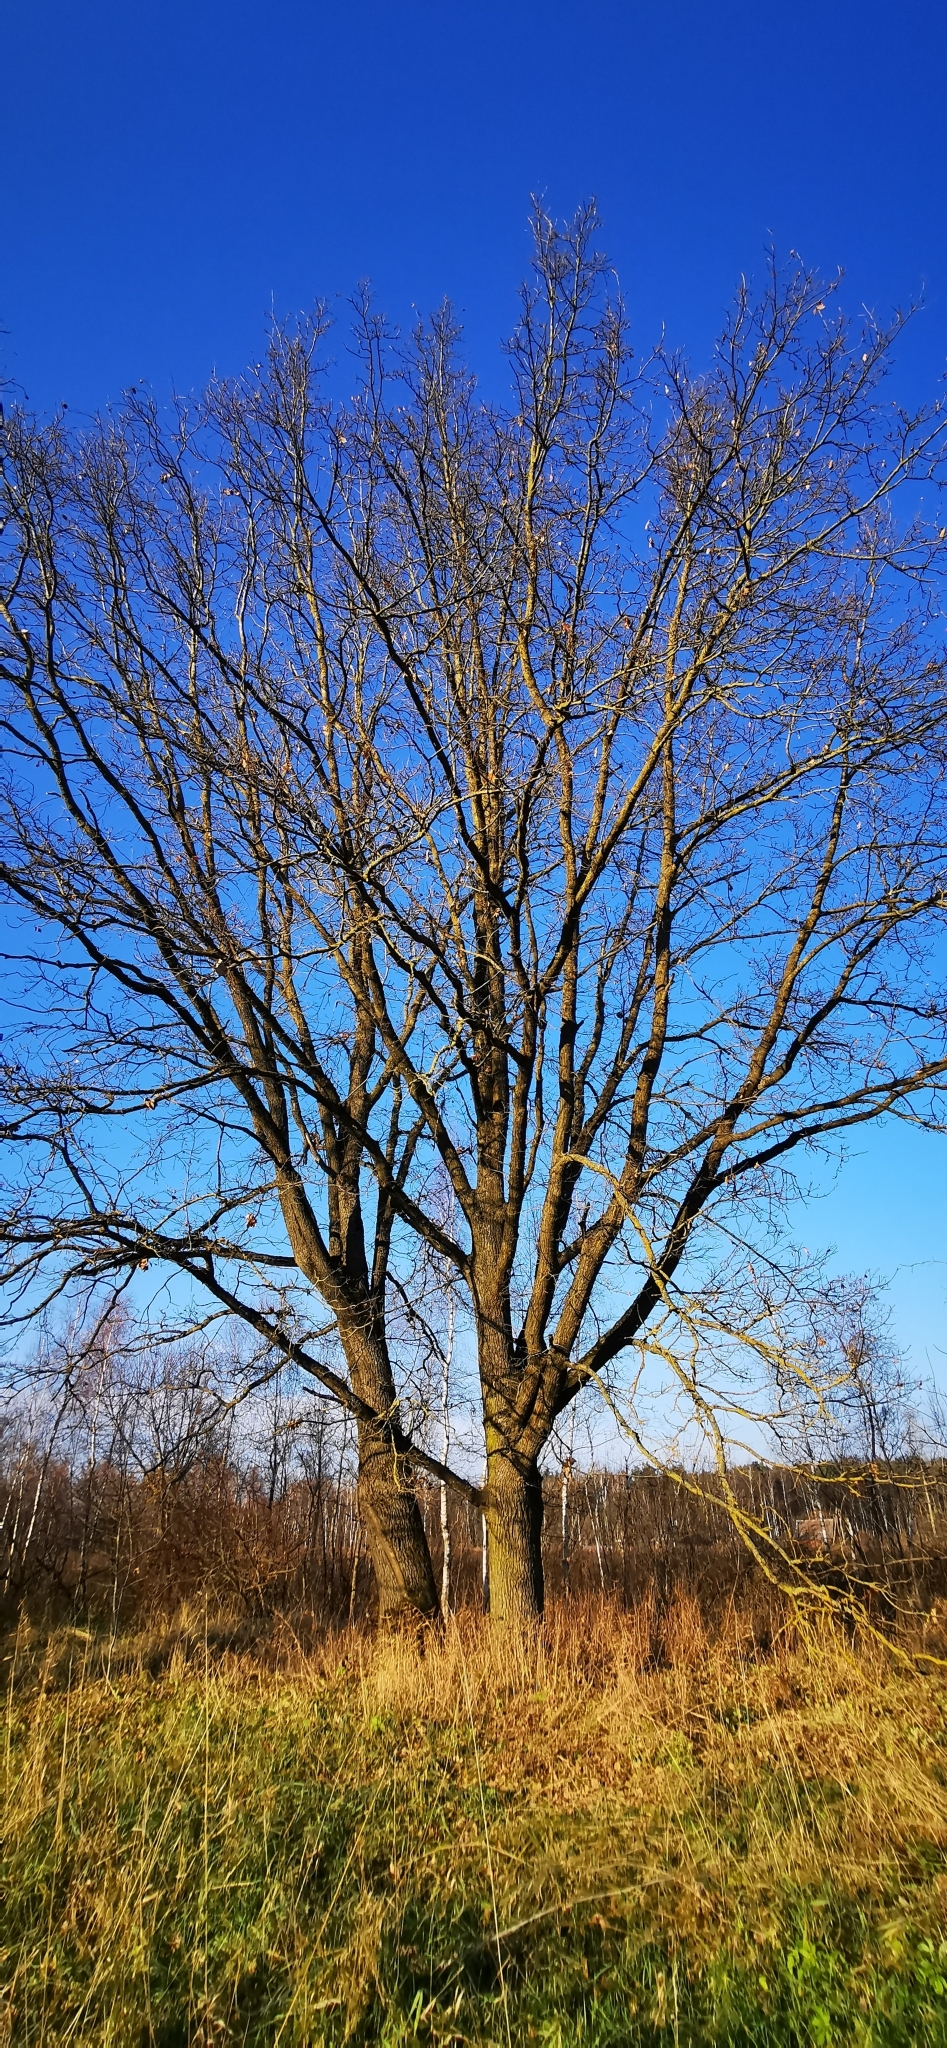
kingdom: Plantae
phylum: Tracheophyta
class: Magnoliopsida
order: Fagales
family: Fagaceae
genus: Quercus
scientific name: Quercus robur
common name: Pedunculate oak
